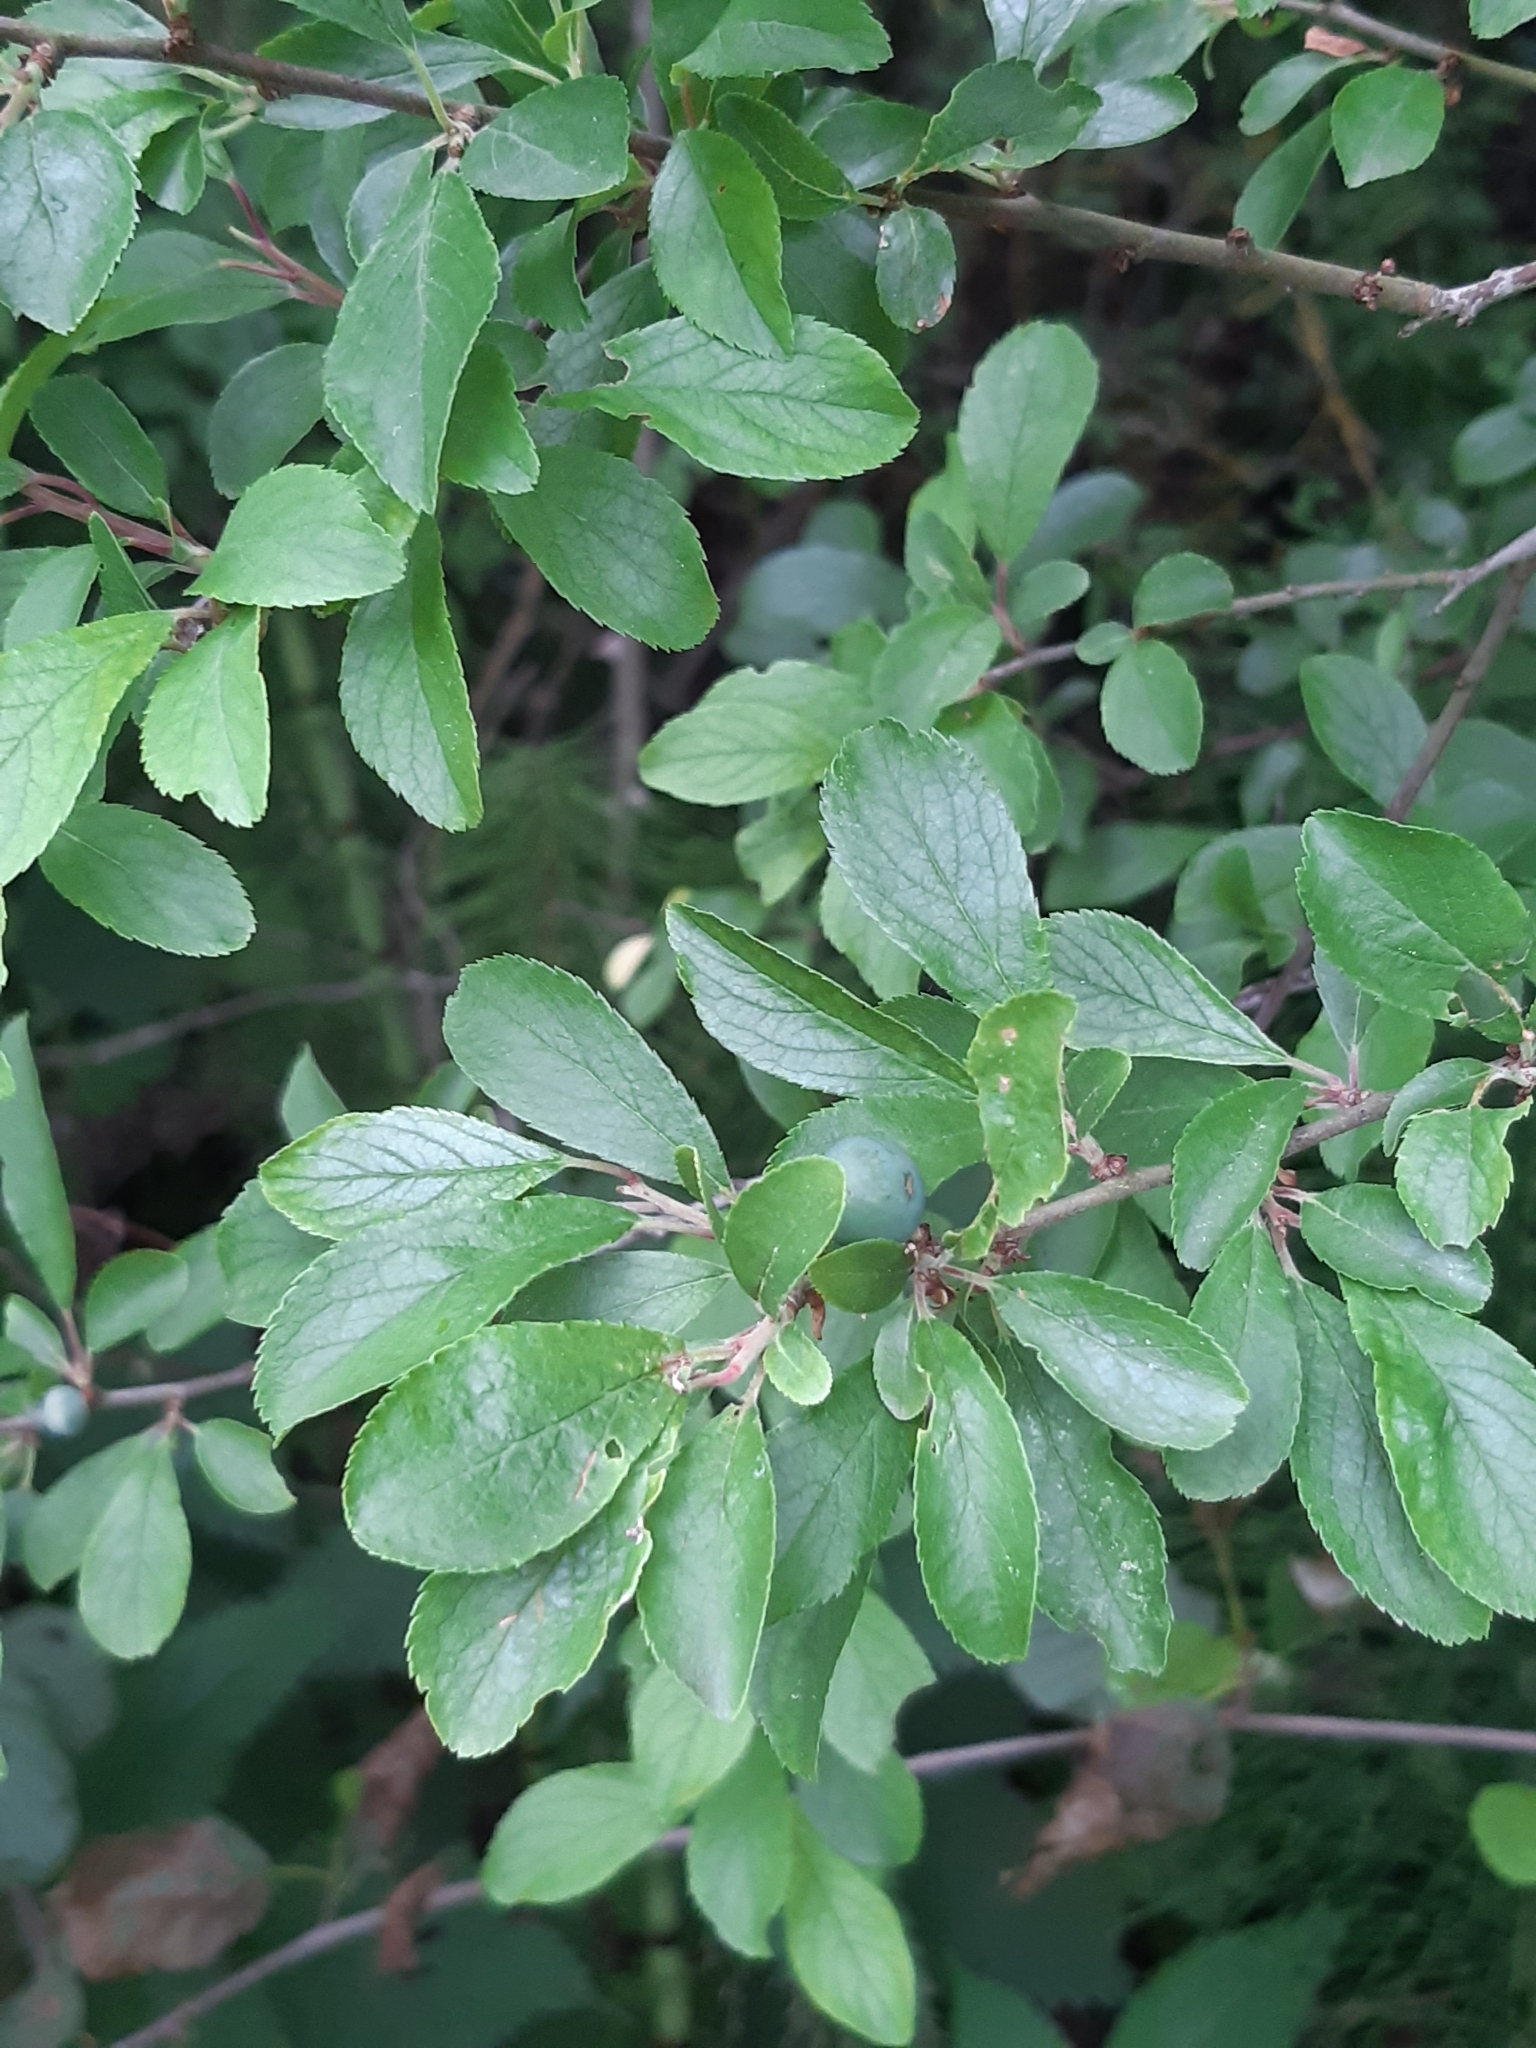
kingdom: Plantae
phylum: Tracheophyta
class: Magnoliopsida
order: Rosales
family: Rosaceae
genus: Prunus
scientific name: Prunus spinosa
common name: Blackthorn
